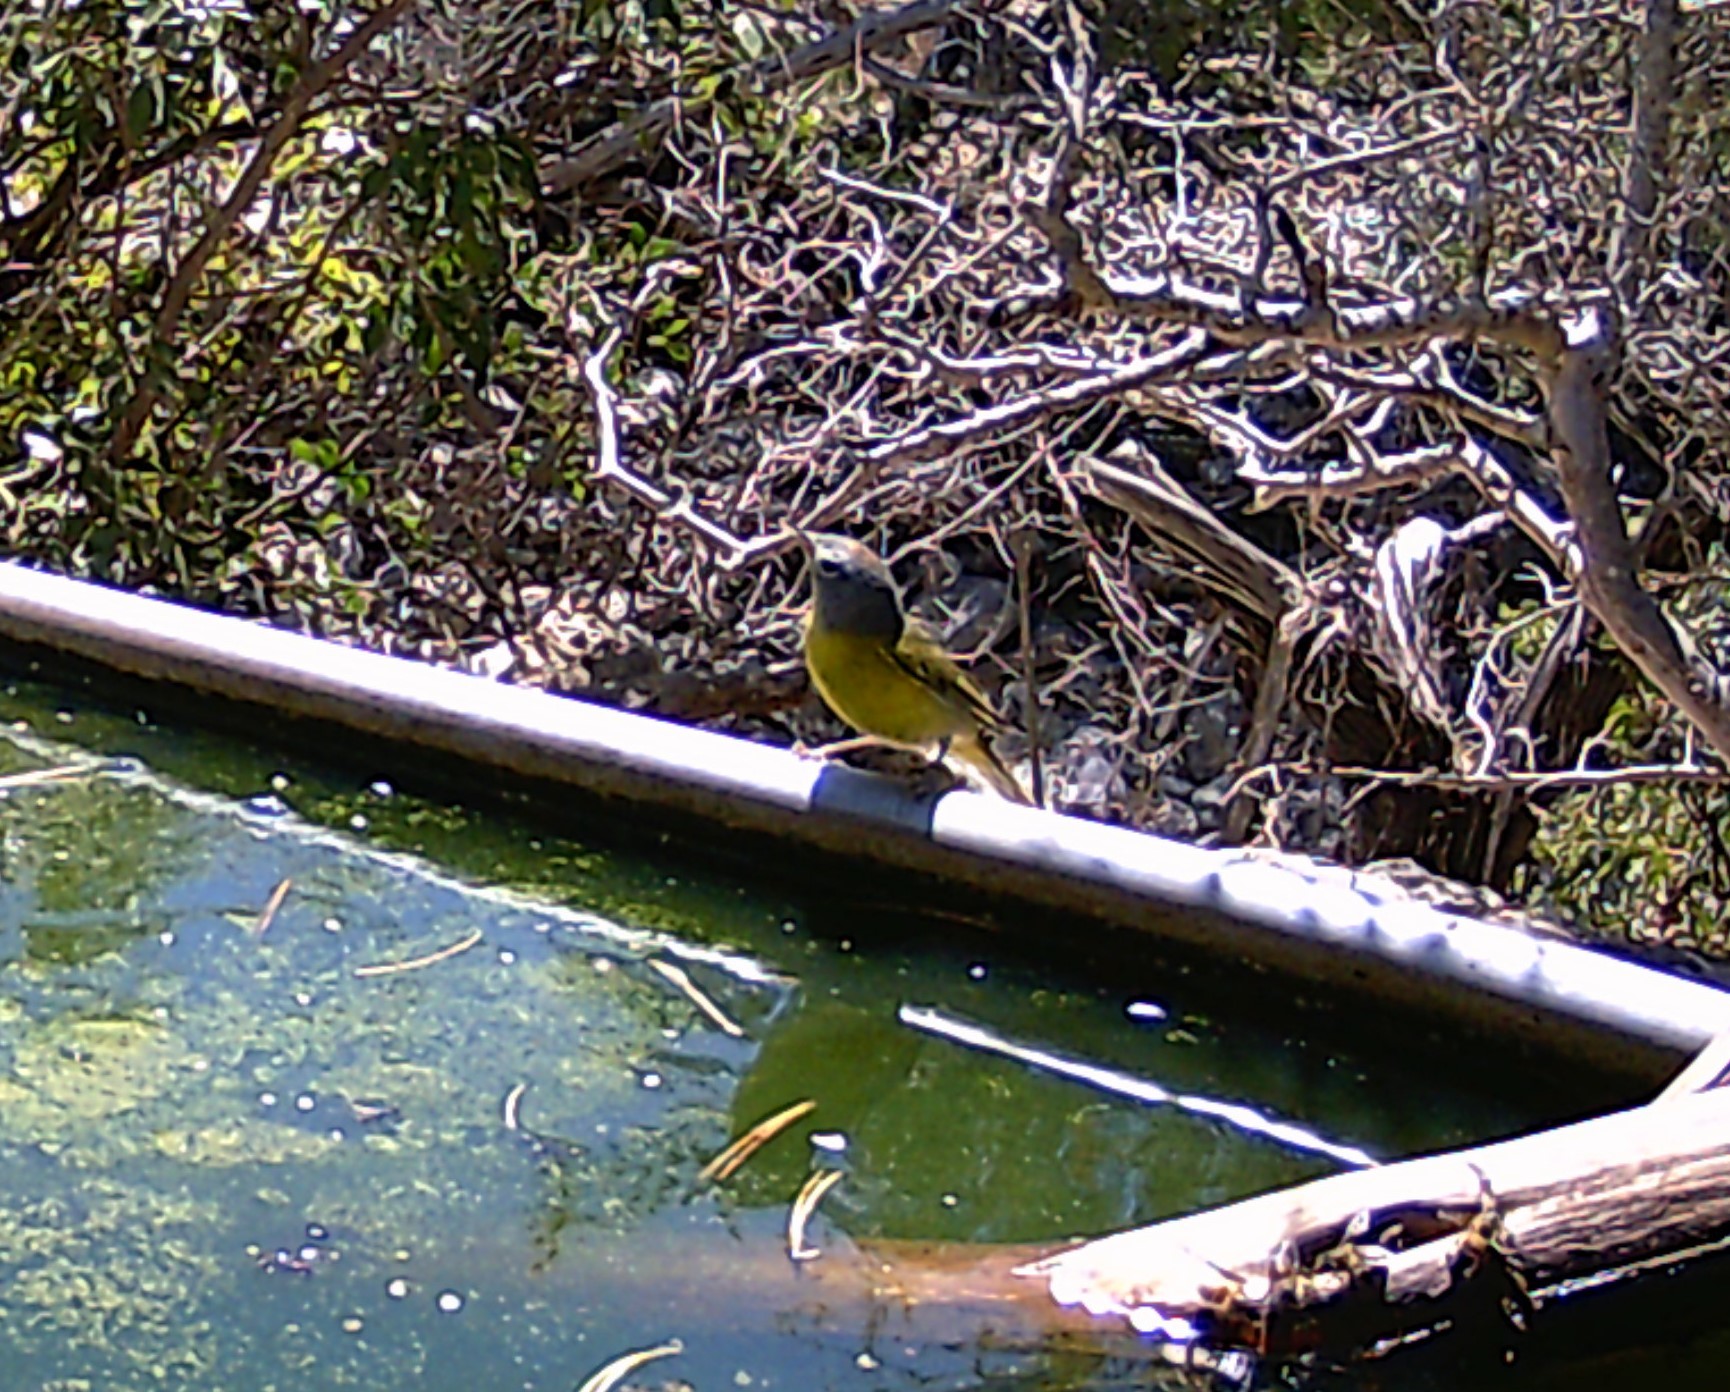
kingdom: Animalia
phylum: Chordata
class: Aves
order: Passeriformes
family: Parulidae
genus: Leiothlypis
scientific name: Leiothlypis ruficapilla
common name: Nashville warbler
